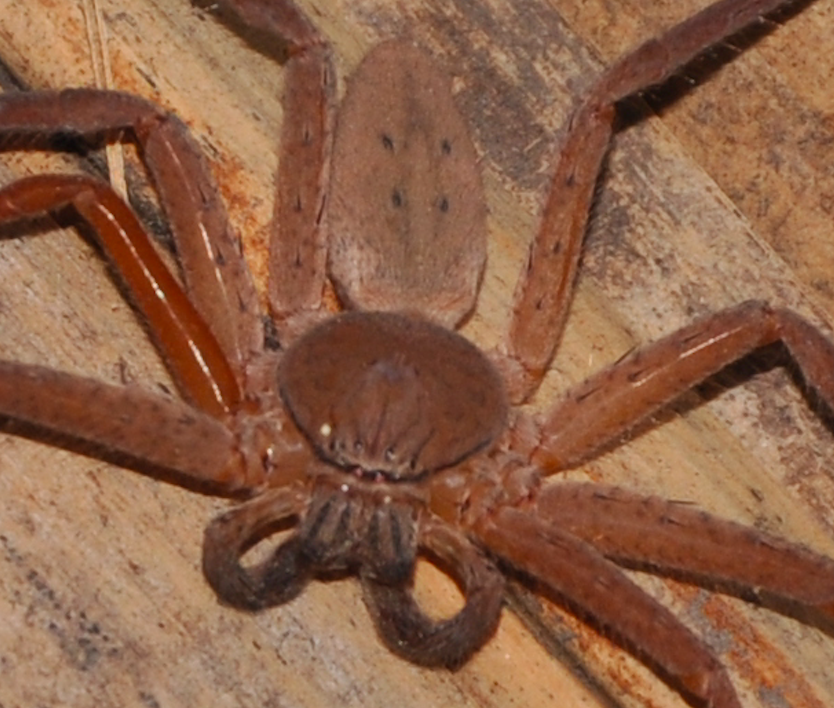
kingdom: Animalia
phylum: Arthropoda
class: Arachnida
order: Araneae
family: Sparassidae
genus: Thunberga
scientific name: Thunberga nossibeensis
